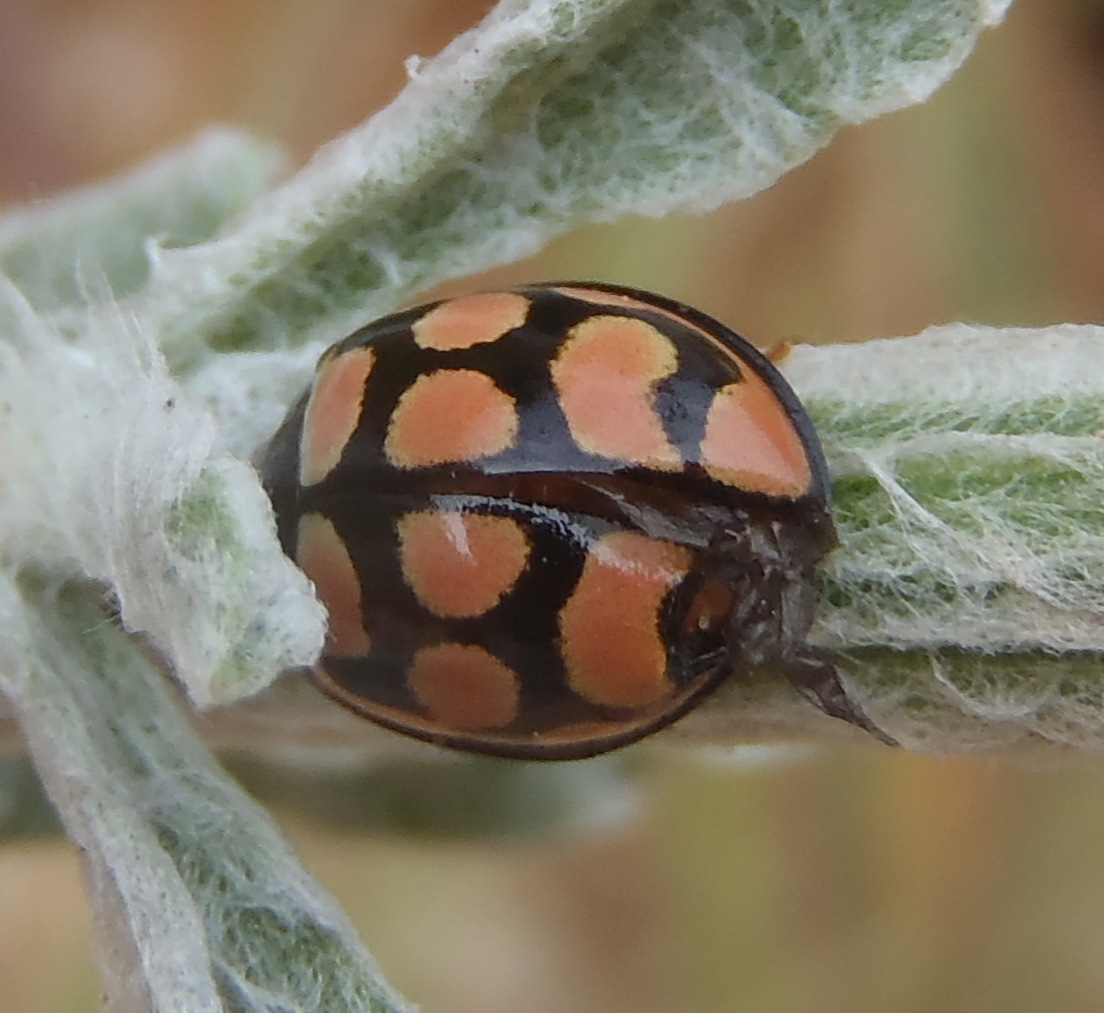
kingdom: Animalia
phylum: Arthropoda
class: Insecta
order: Coleoptera
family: Coccinellidae
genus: Cheilomenes
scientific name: Cheilomenes lunata
